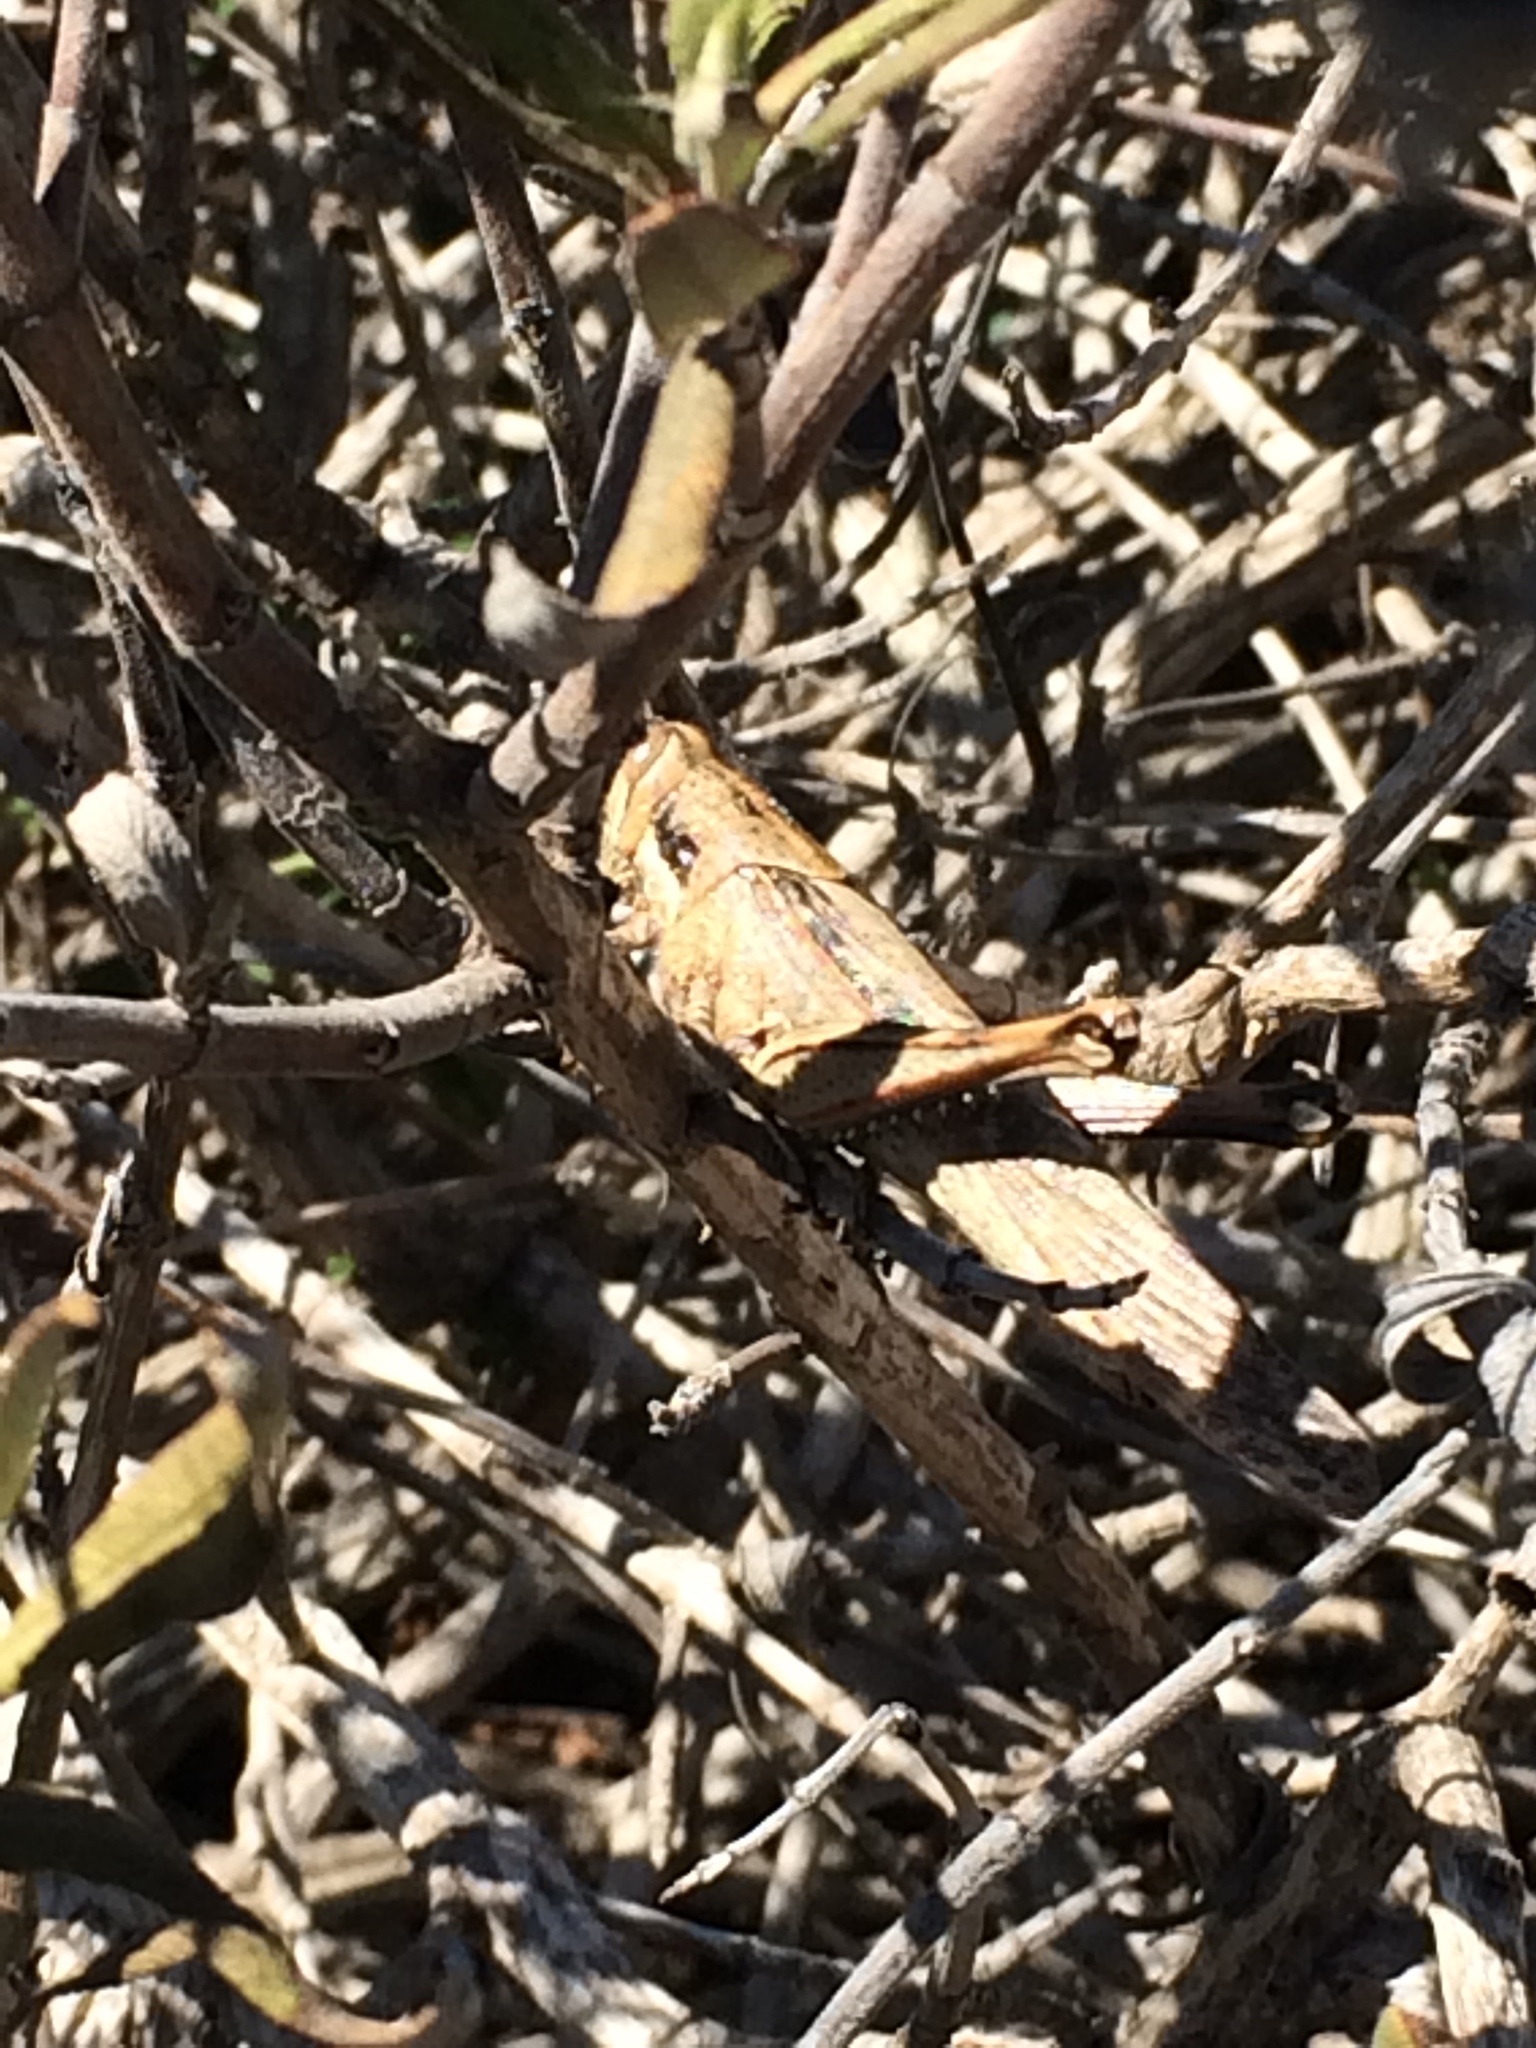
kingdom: Animalia
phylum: Arthropoda
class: Insecta
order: Orthoptera
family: Acrididae
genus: Schistocerca
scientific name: Schistocerca nitens
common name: Vagrant grasshopper
